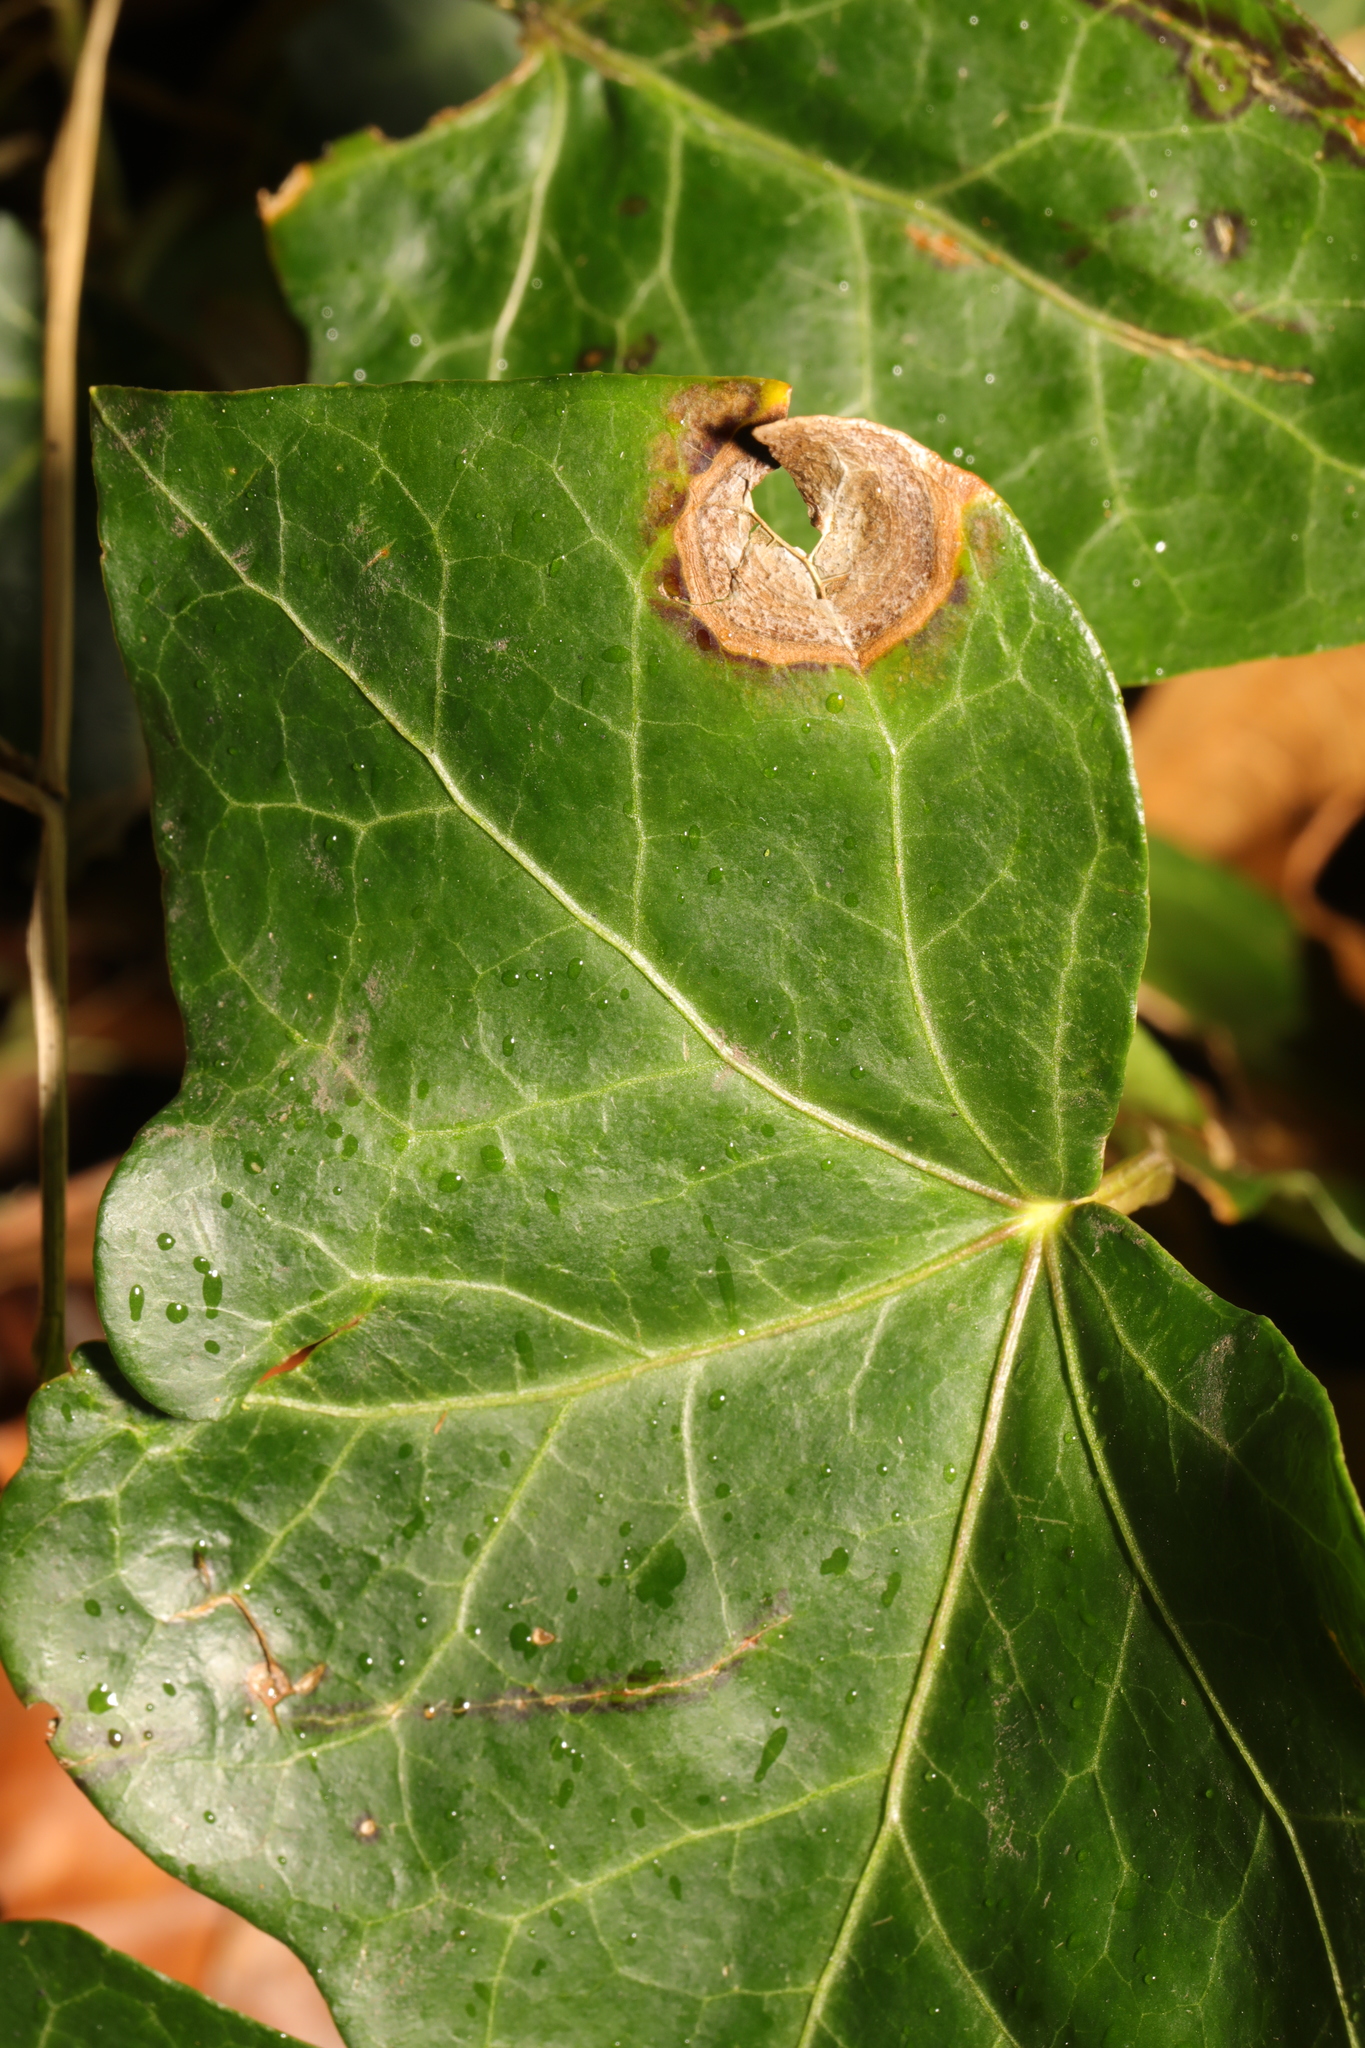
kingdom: Fungi
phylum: Ascomycota
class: Dothideomycetes
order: Pleosporales
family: Didymellaceae
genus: Boeremia
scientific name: Boeremia hedericola
